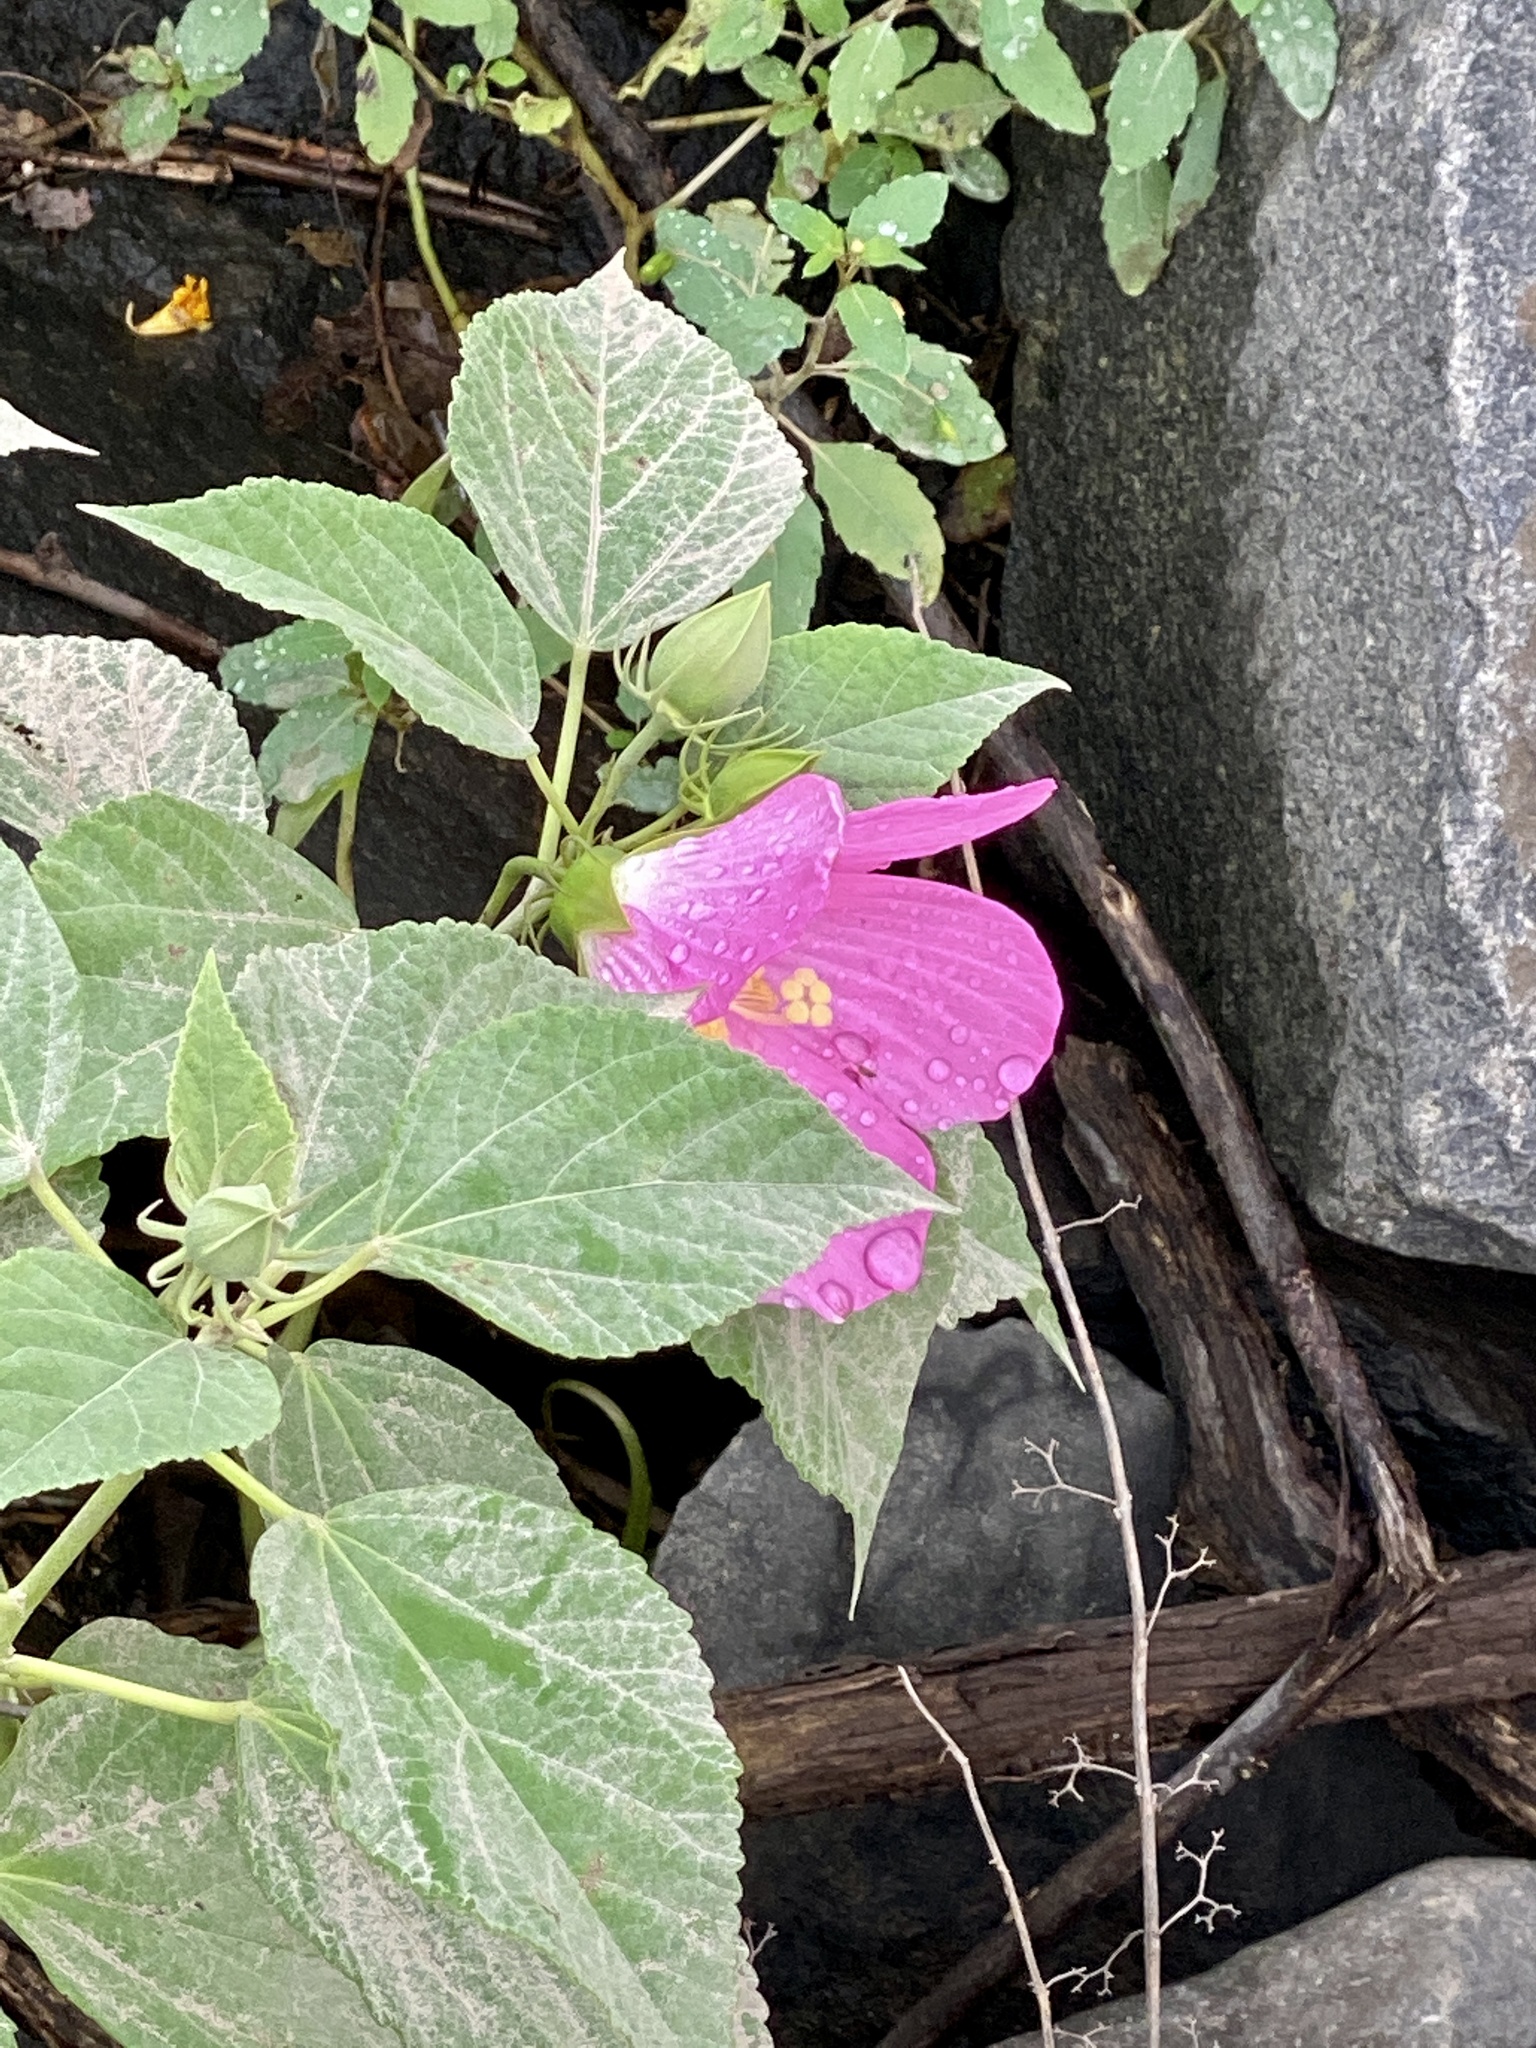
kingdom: Plantae
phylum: Tracheophyta
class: Magnoliopsida
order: Malvales
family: Malvaceae
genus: Hibiscus
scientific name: Hibiscus moscheutos
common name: Common rose-mallow
